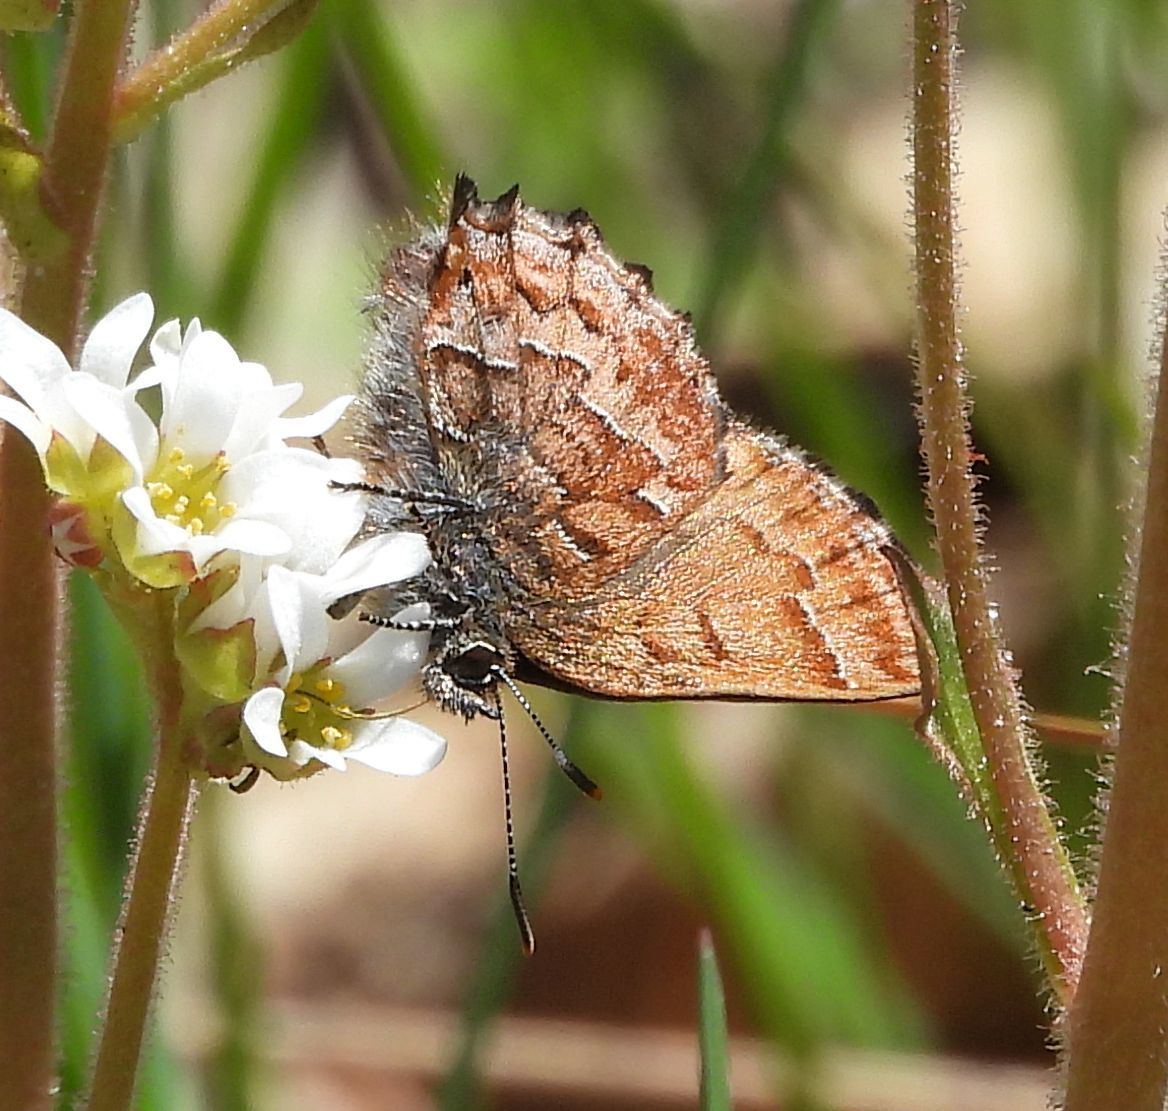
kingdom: Animalia
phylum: Arthropoda
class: Insecta
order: Lepidoptera
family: Lycaenidae
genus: Incisalia
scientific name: Incisalia niphon
